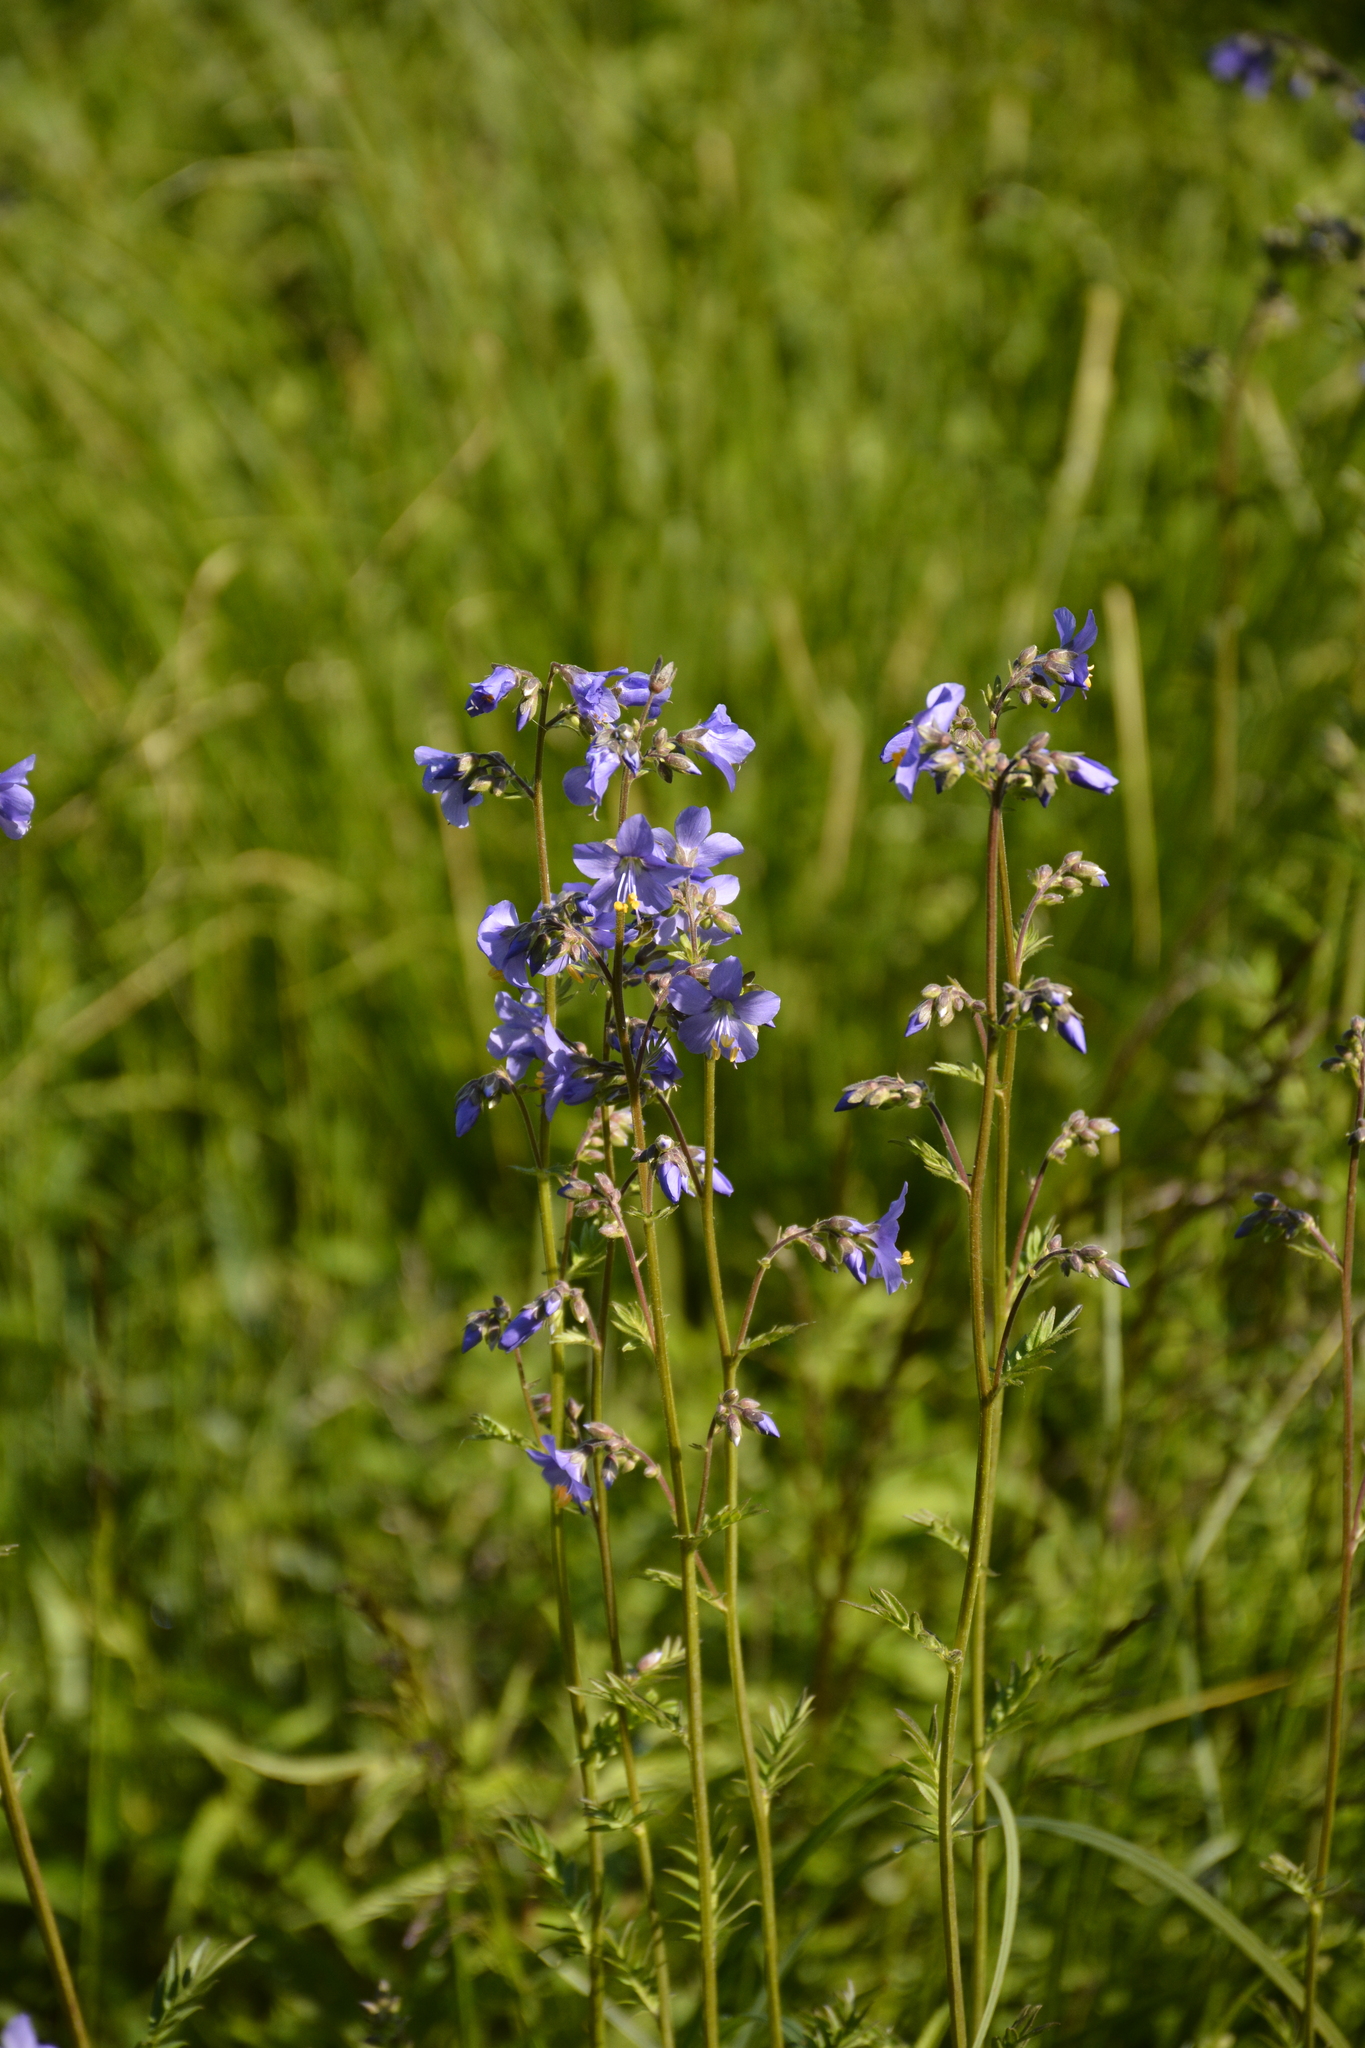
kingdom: Plantae
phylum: Tracheophyta
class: Magnoliopsida
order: Ericales
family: Polemoniaceae
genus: Polemonium
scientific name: Polemonium caeruleum
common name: Jacob's-ladder
